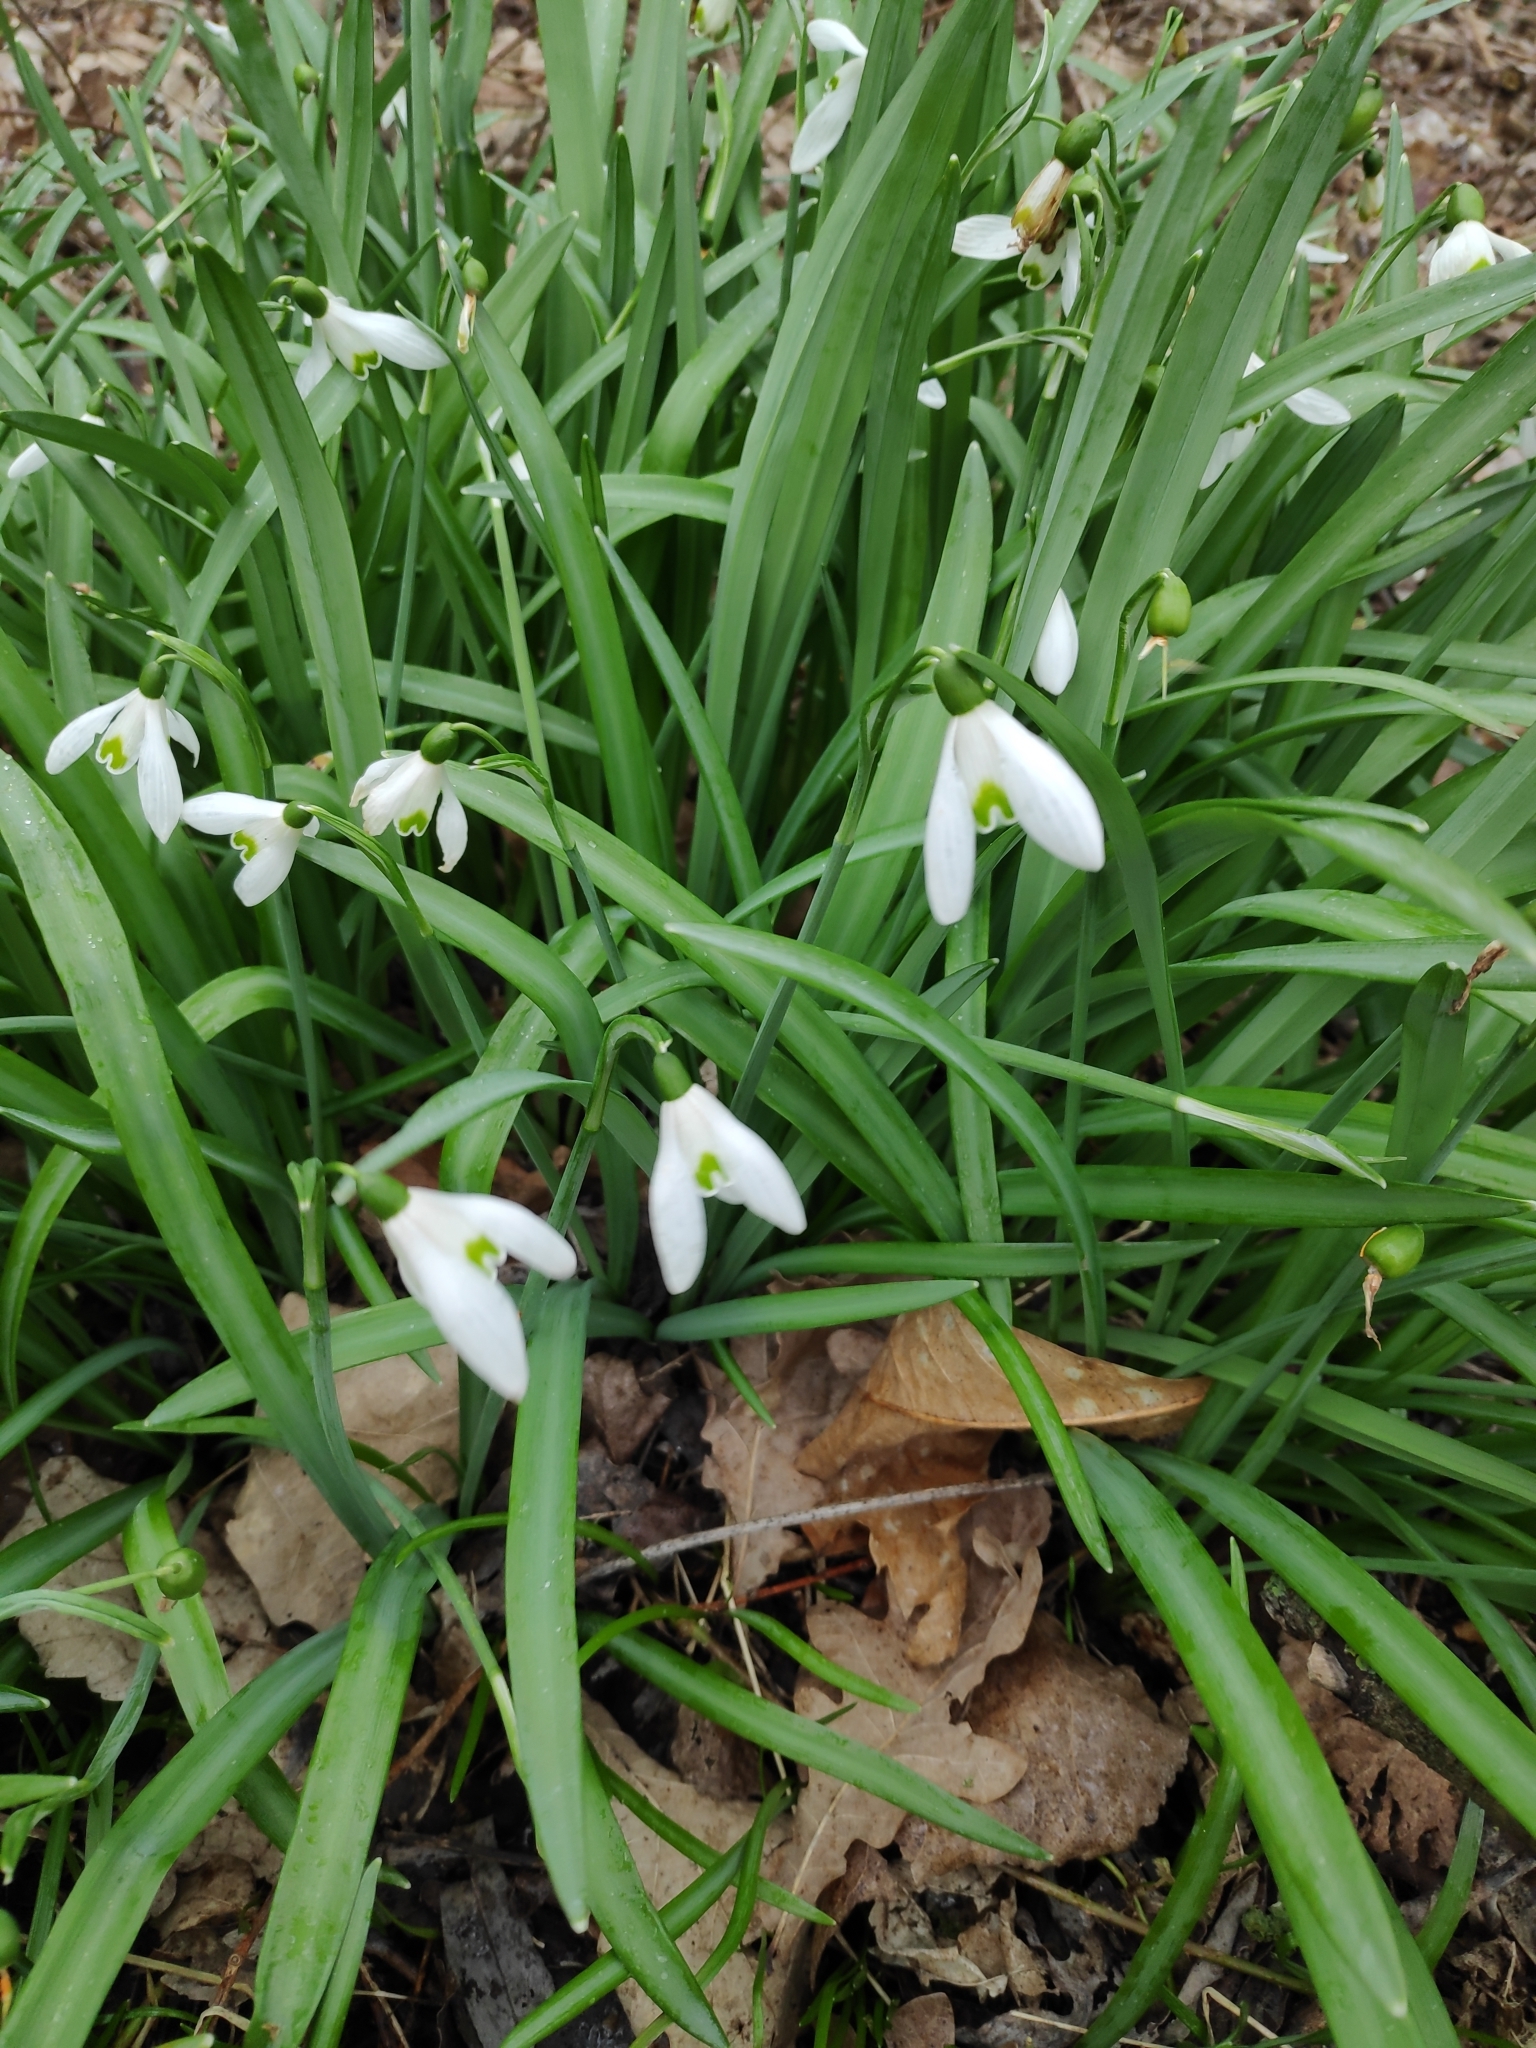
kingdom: Plantae
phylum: Tracheophyta
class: Liliopsida
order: Asparagales
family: Amaryllidaceae
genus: Galanthus
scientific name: Galanthus nivalis
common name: Snowdrop
